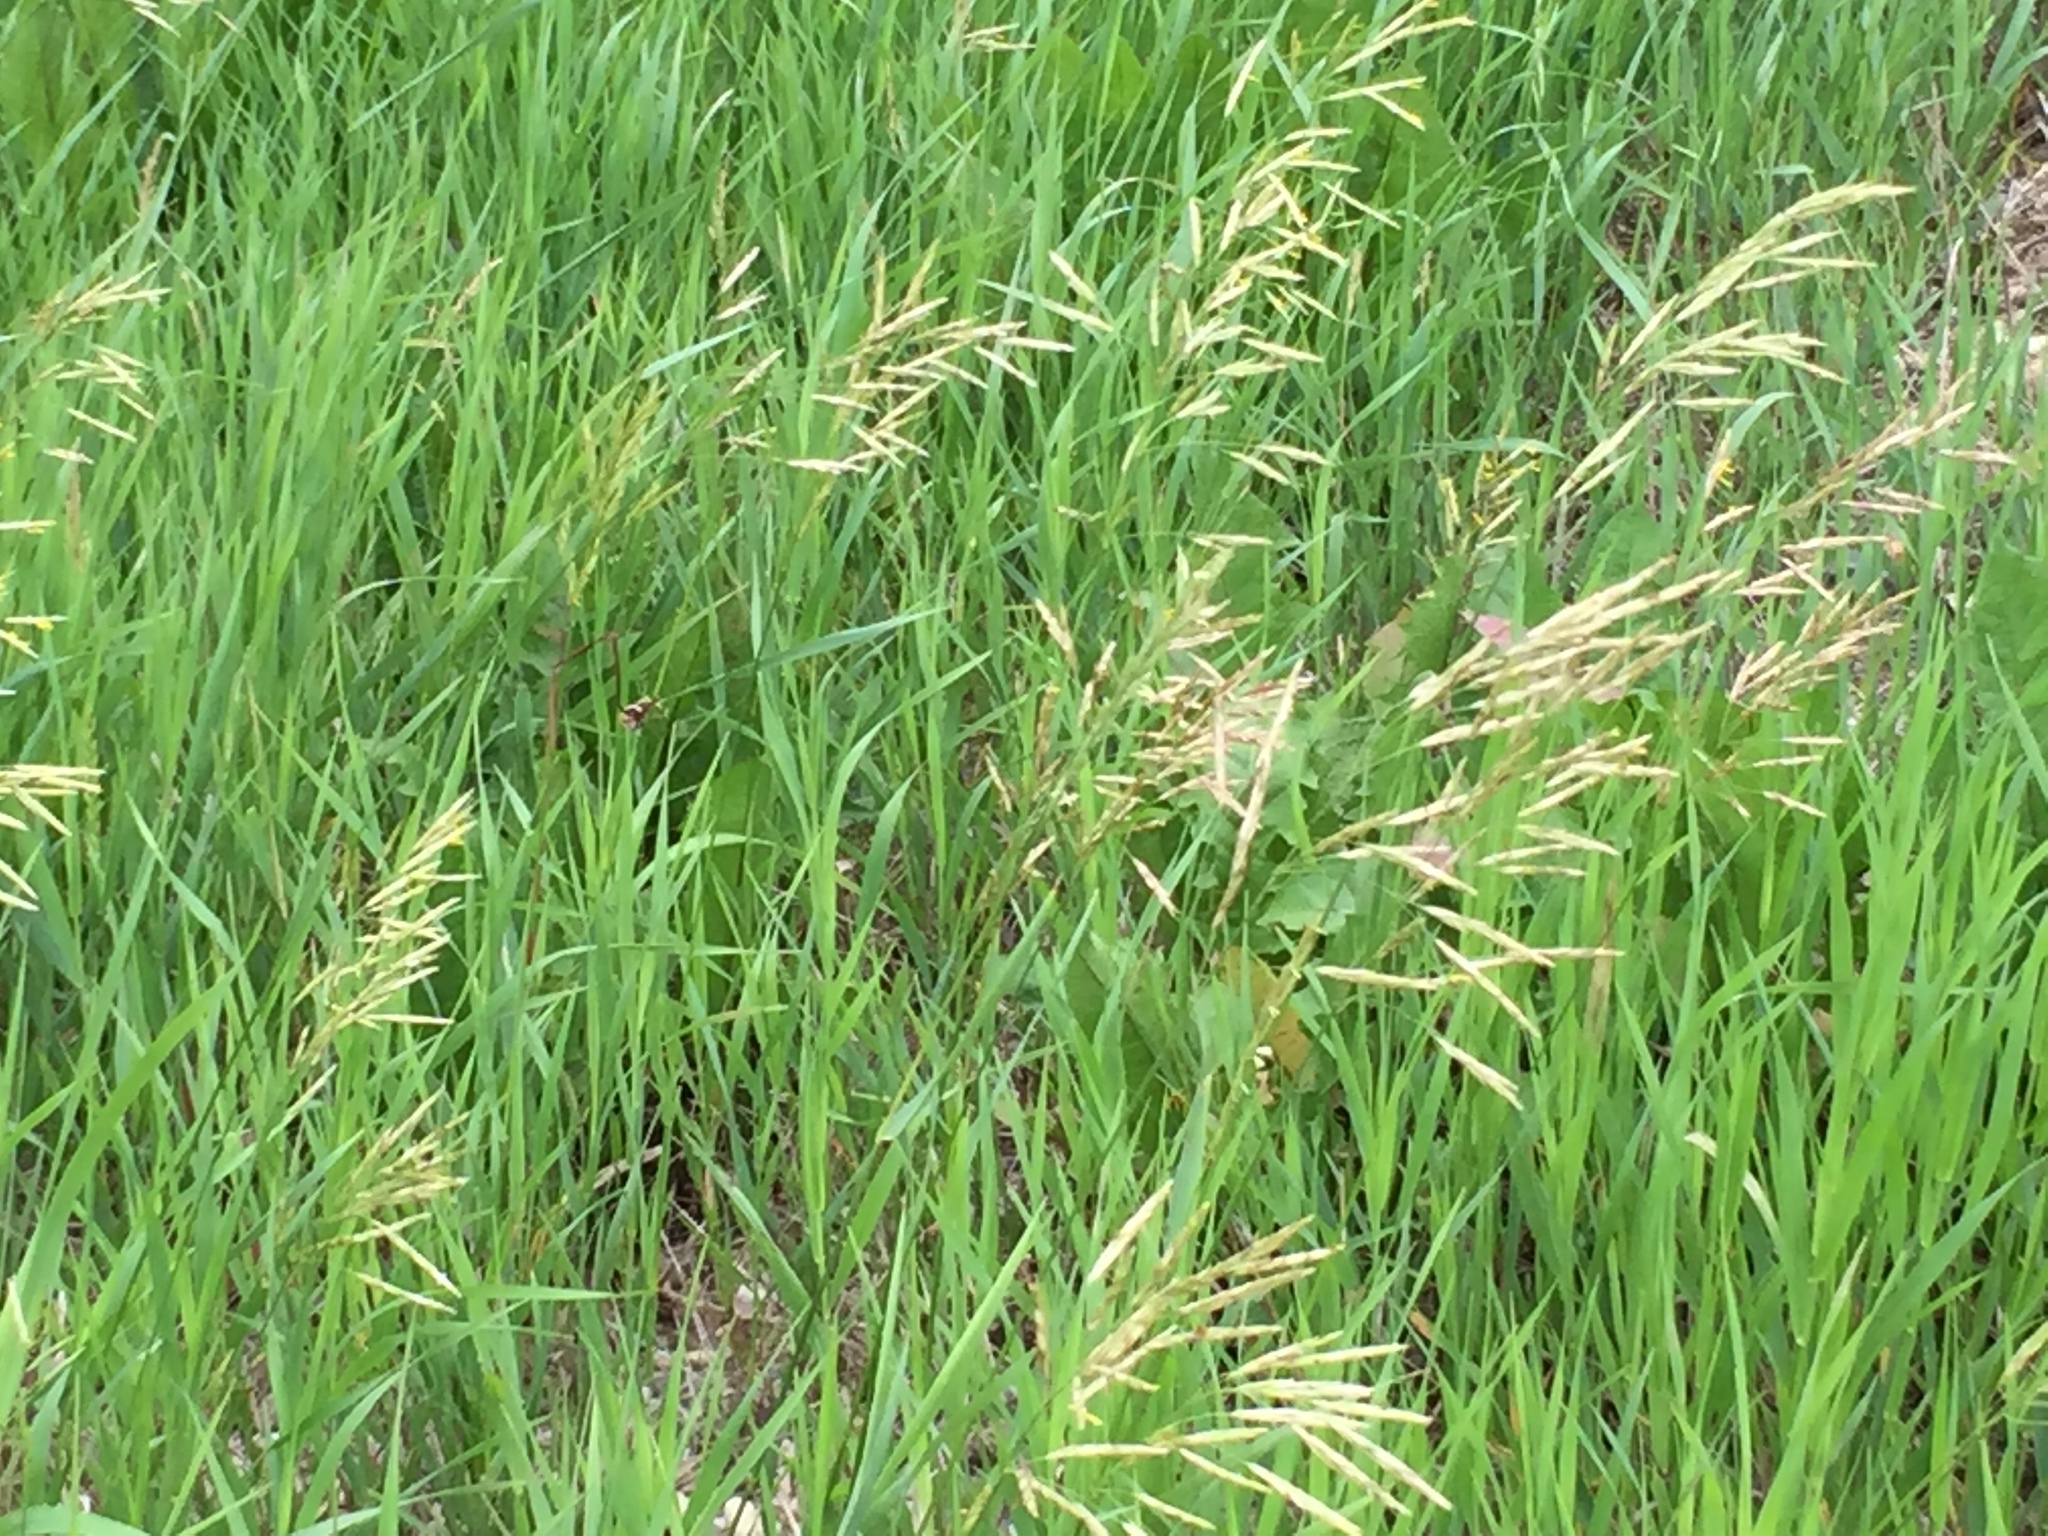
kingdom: Plantae
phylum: Tracheophyta
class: Liliopsida
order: Poales
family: Poaceae
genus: Bromus
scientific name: Bromus inermis
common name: Smooth brome
